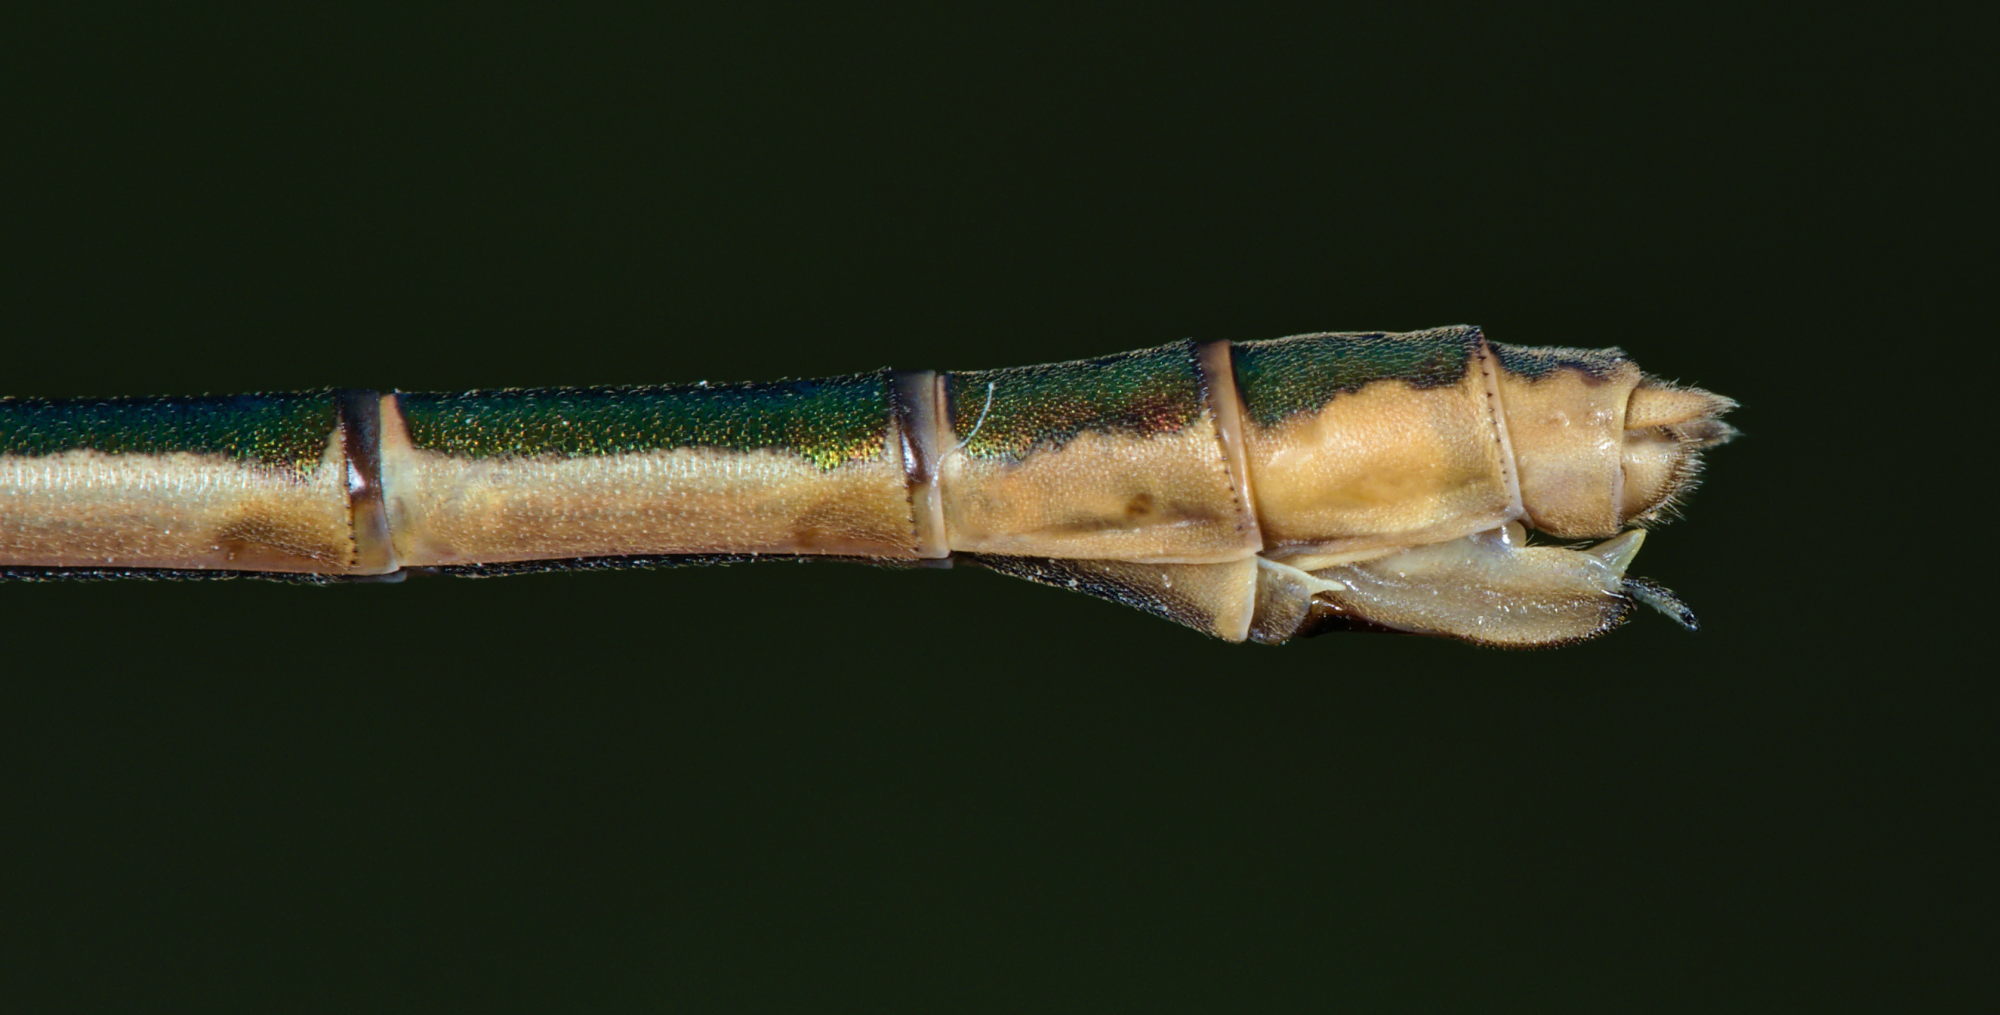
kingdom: Animalia
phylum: Arthropoda
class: Insecta
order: Odonata
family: Lestidae
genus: Lestes
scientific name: Lestes sponsa
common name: Common spreadwing
